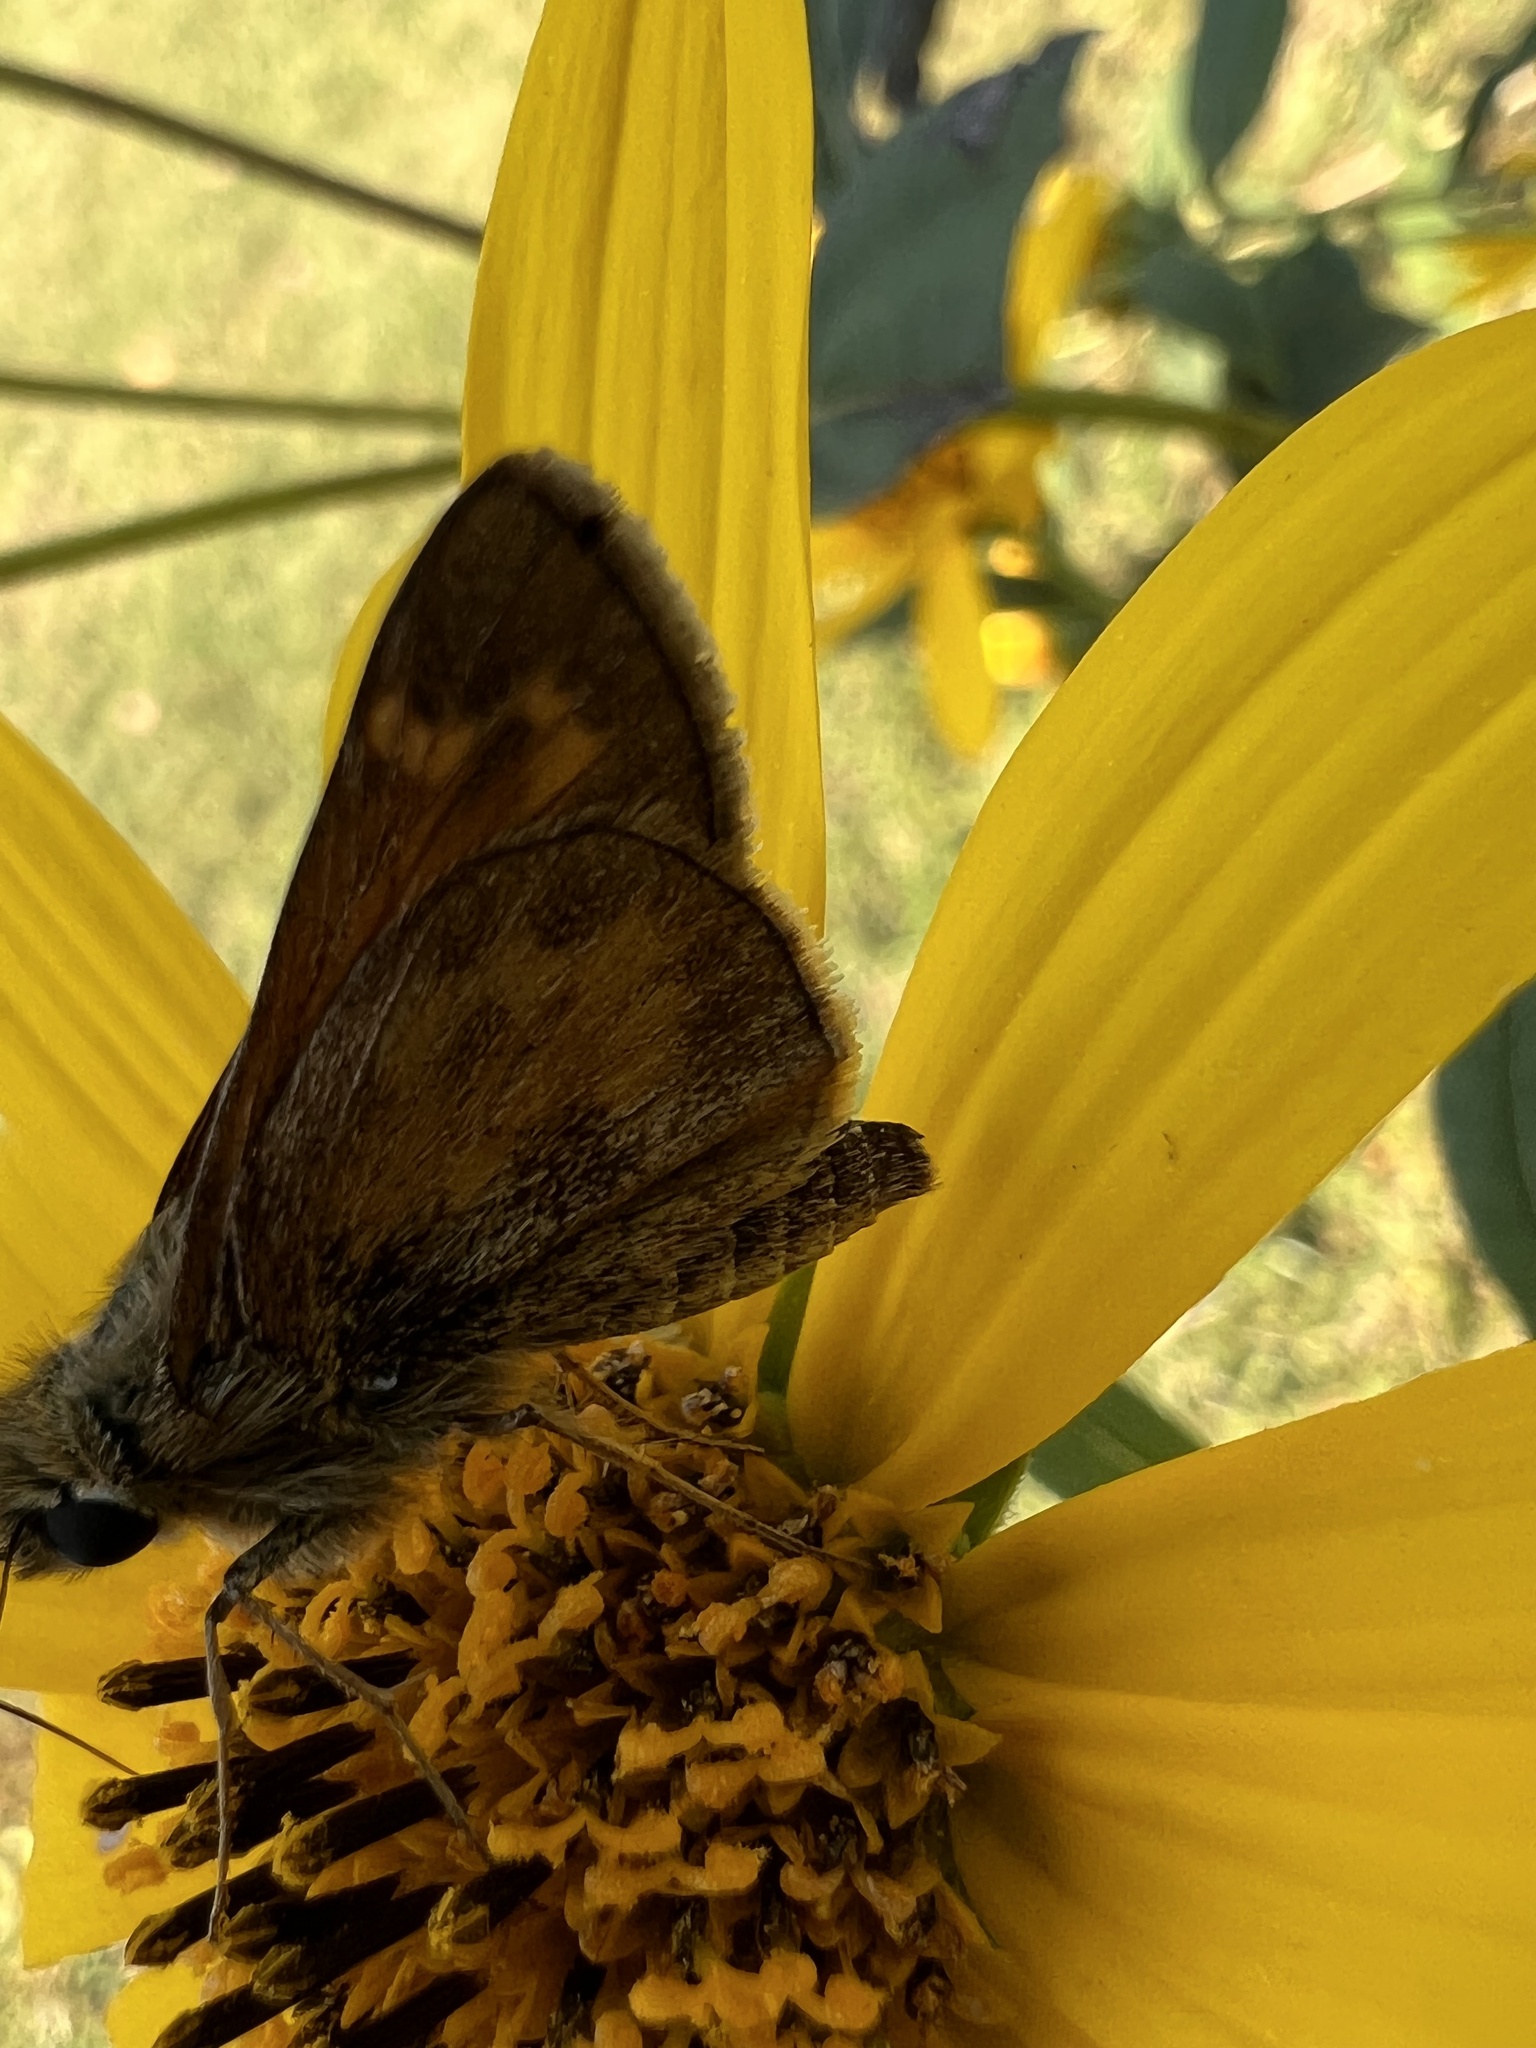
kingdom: Animalia
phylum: Arthropoda
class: Insecta
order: Lepidoptera
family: Hesperiidae
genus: Atalopedes
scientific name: Atalopedes
